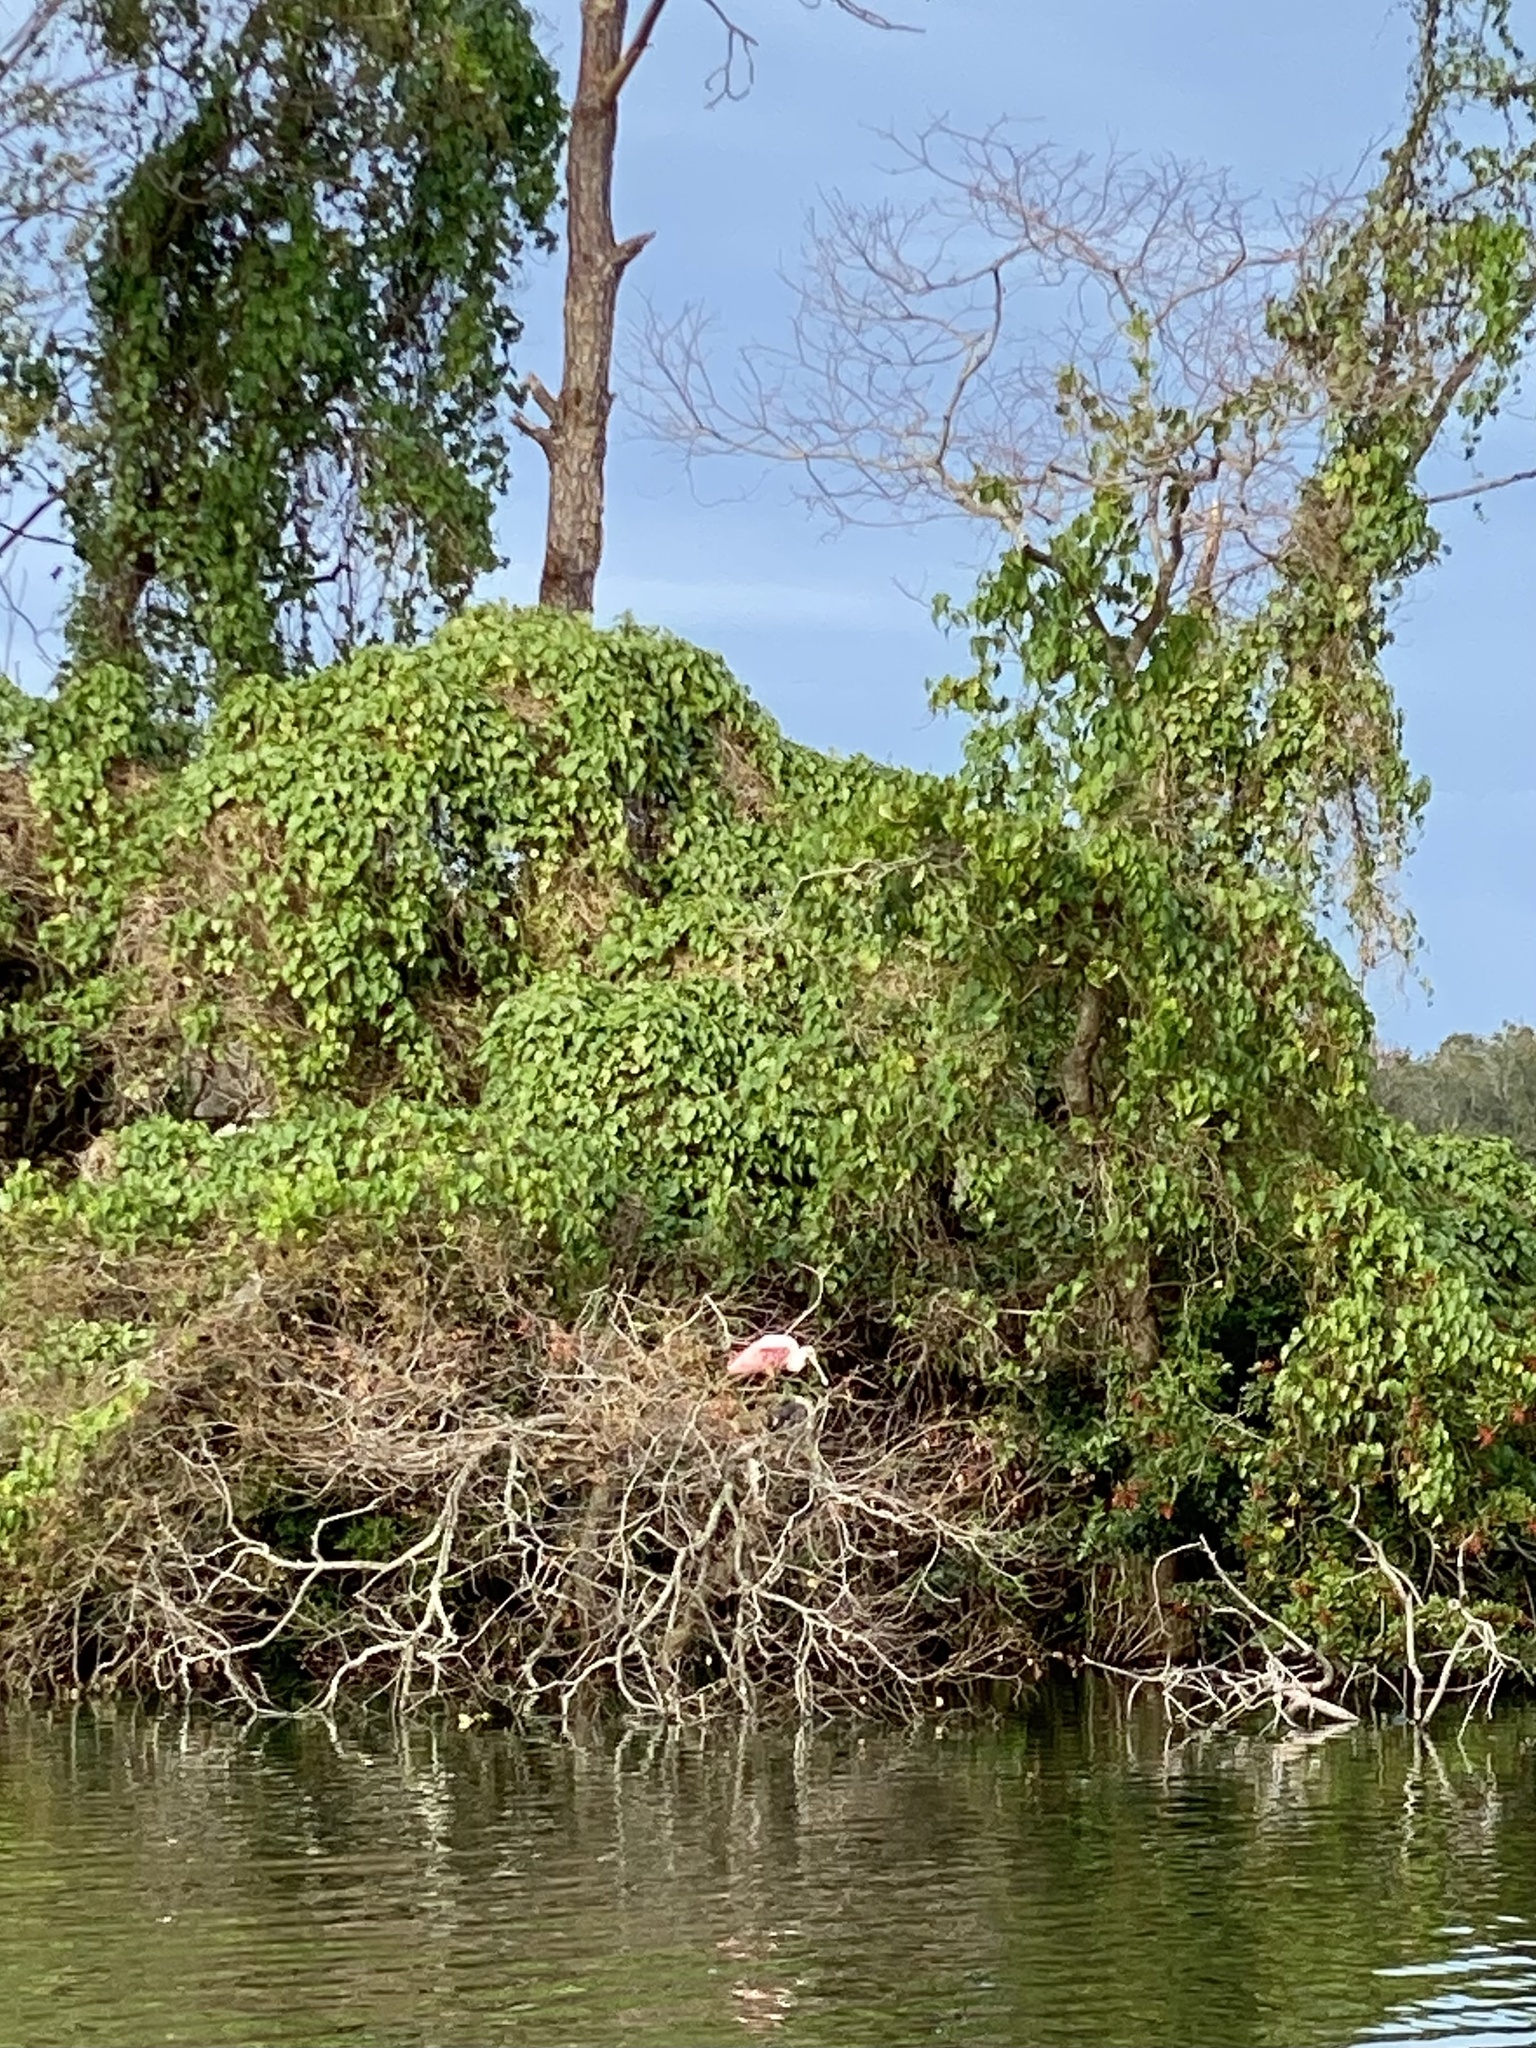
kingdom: Animalia
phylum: Chordata
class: Aves
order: Pelecaniformes
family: Threskiornithidae
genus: Platalea
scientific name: Platalea ajaja
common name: Roseate spoonbill
